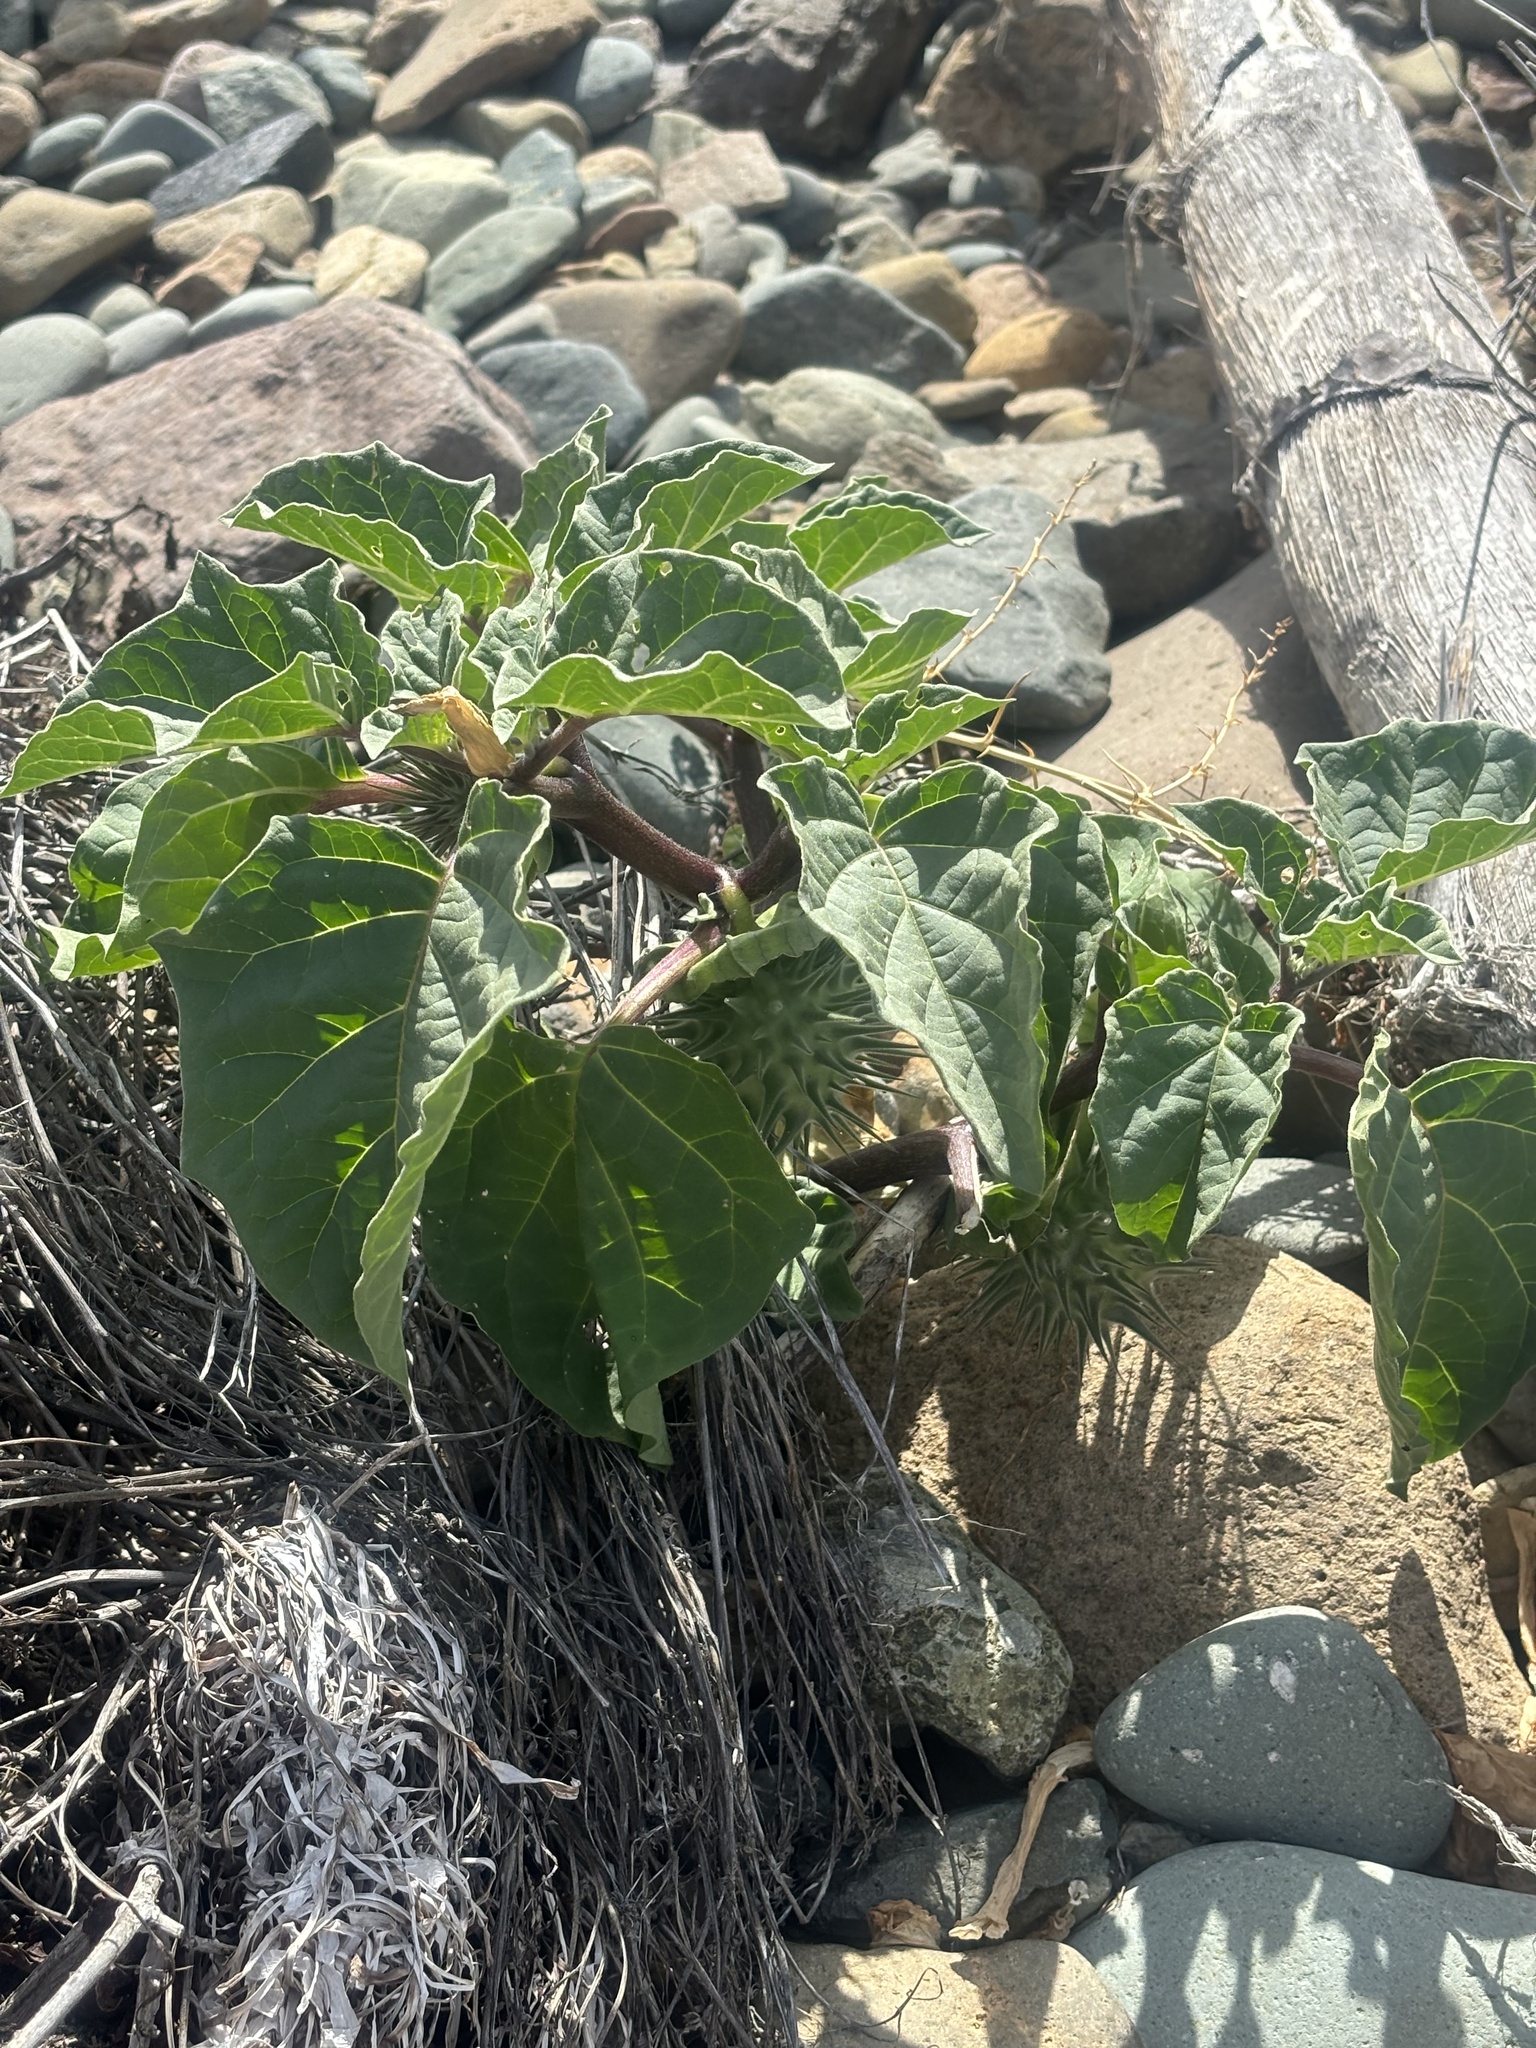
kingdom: Plantae
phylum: Tracheophyta
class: Magnoliopsida
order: Solanales
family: Solanaceae
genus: Datura
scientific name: Datura discolor
